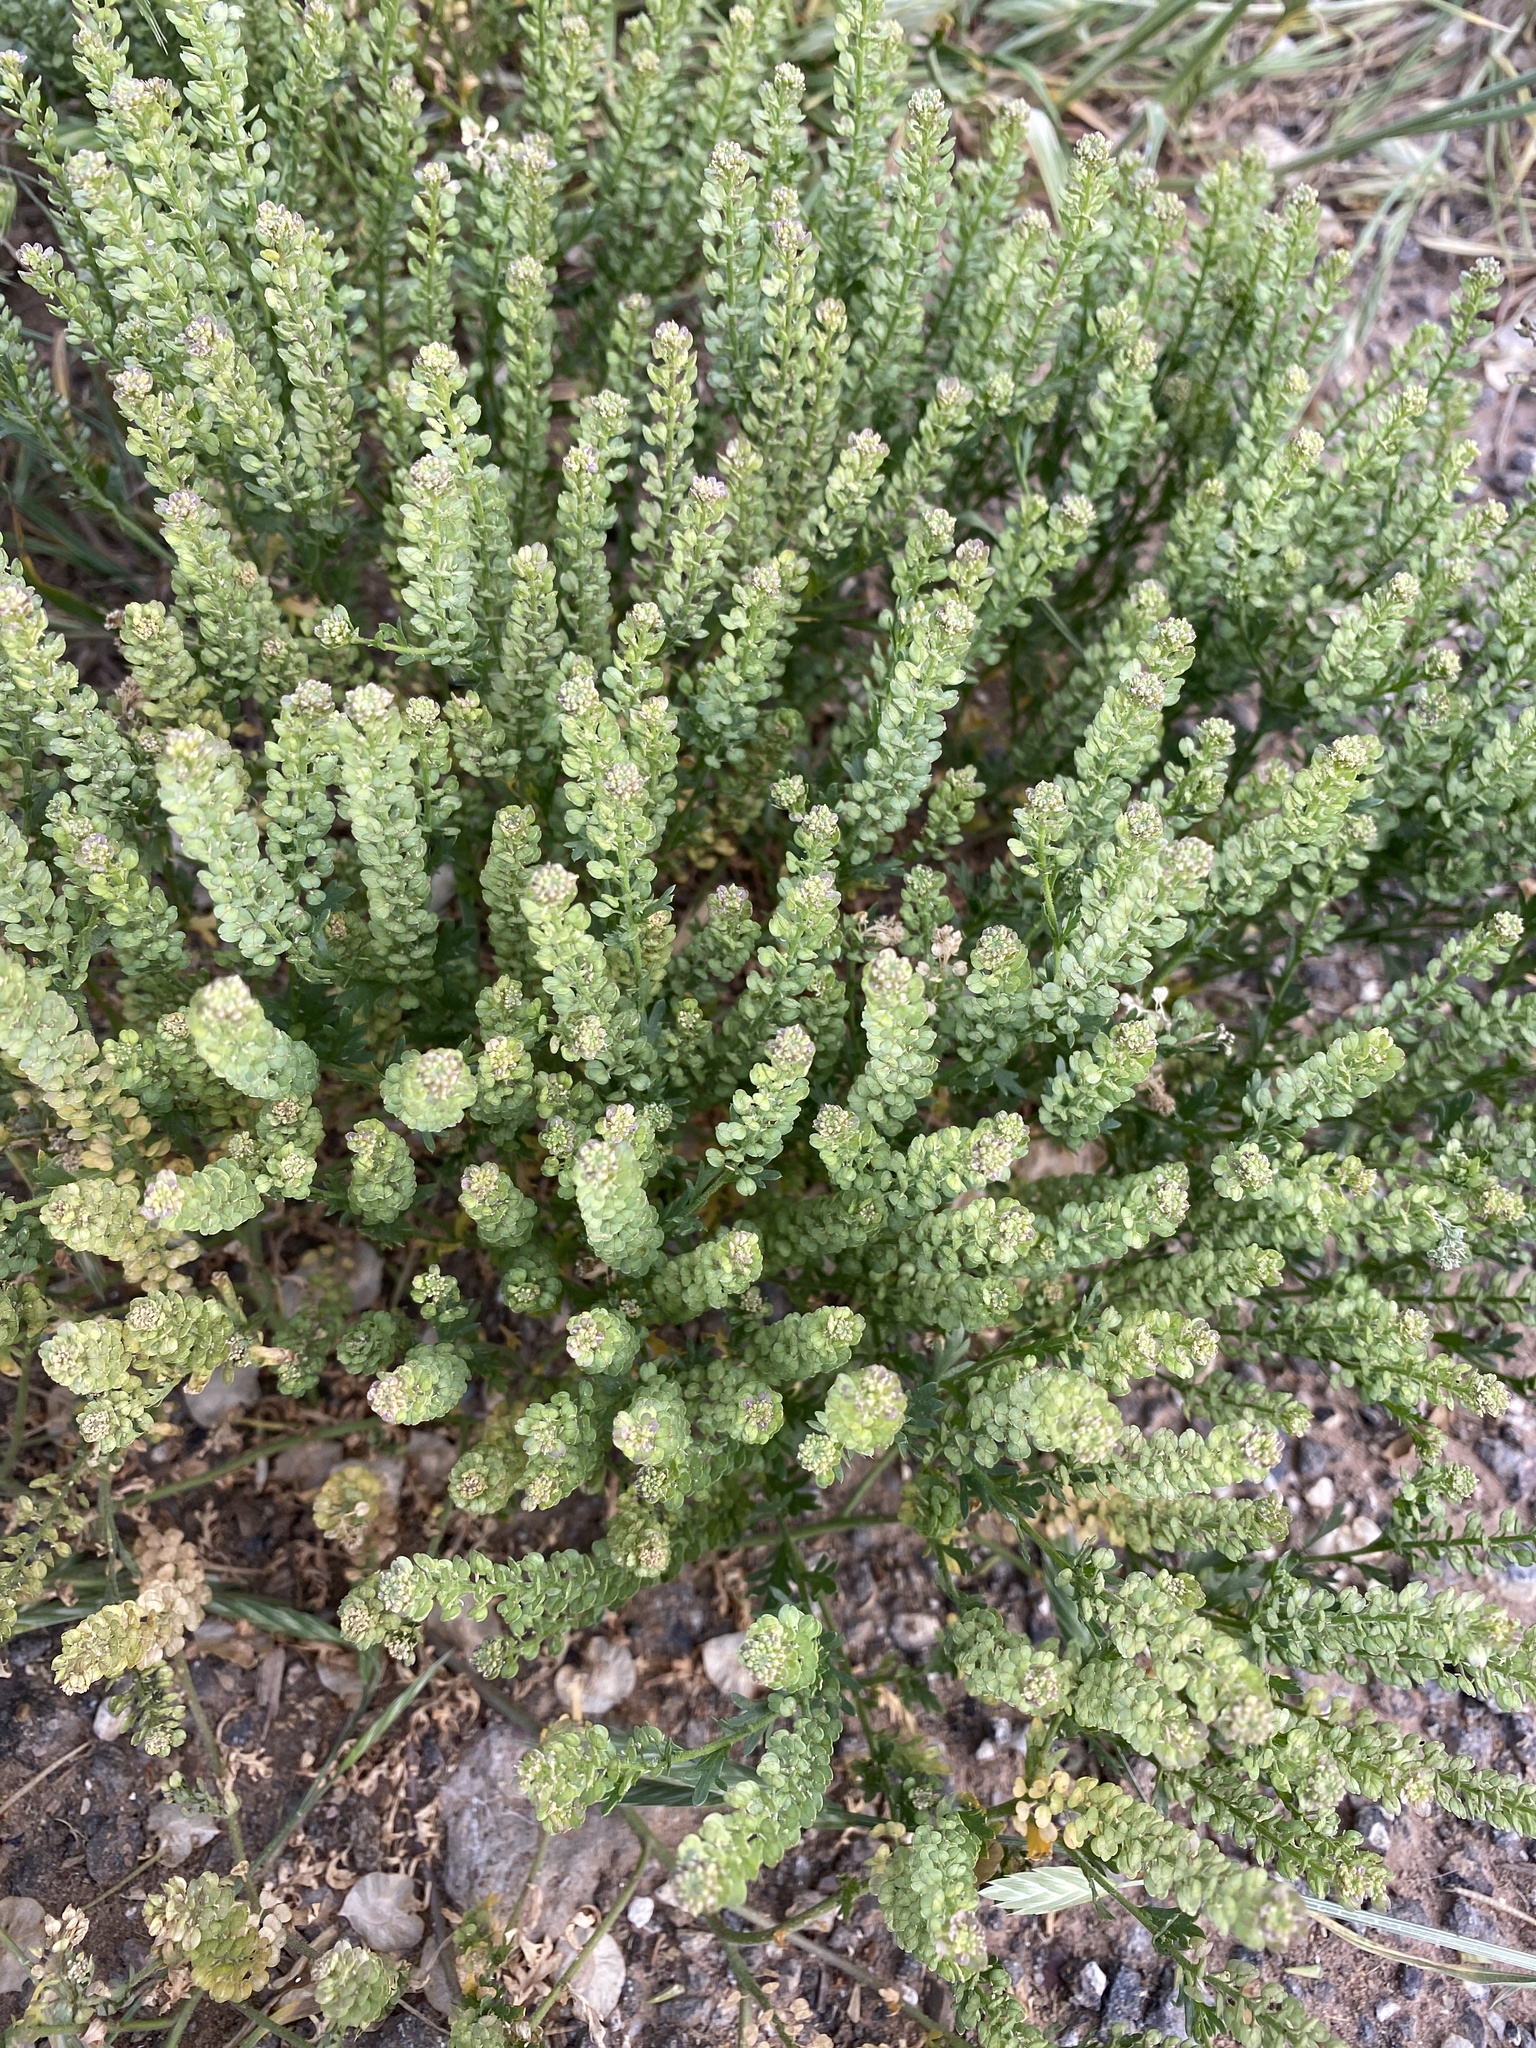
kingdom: Plantae
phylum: Tracheophyta
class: Magnoliopsida
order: Brassicales
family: Brassicaceae
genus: Lepidium
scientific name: Lepidium oblongum
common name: Veiny pepperweed
